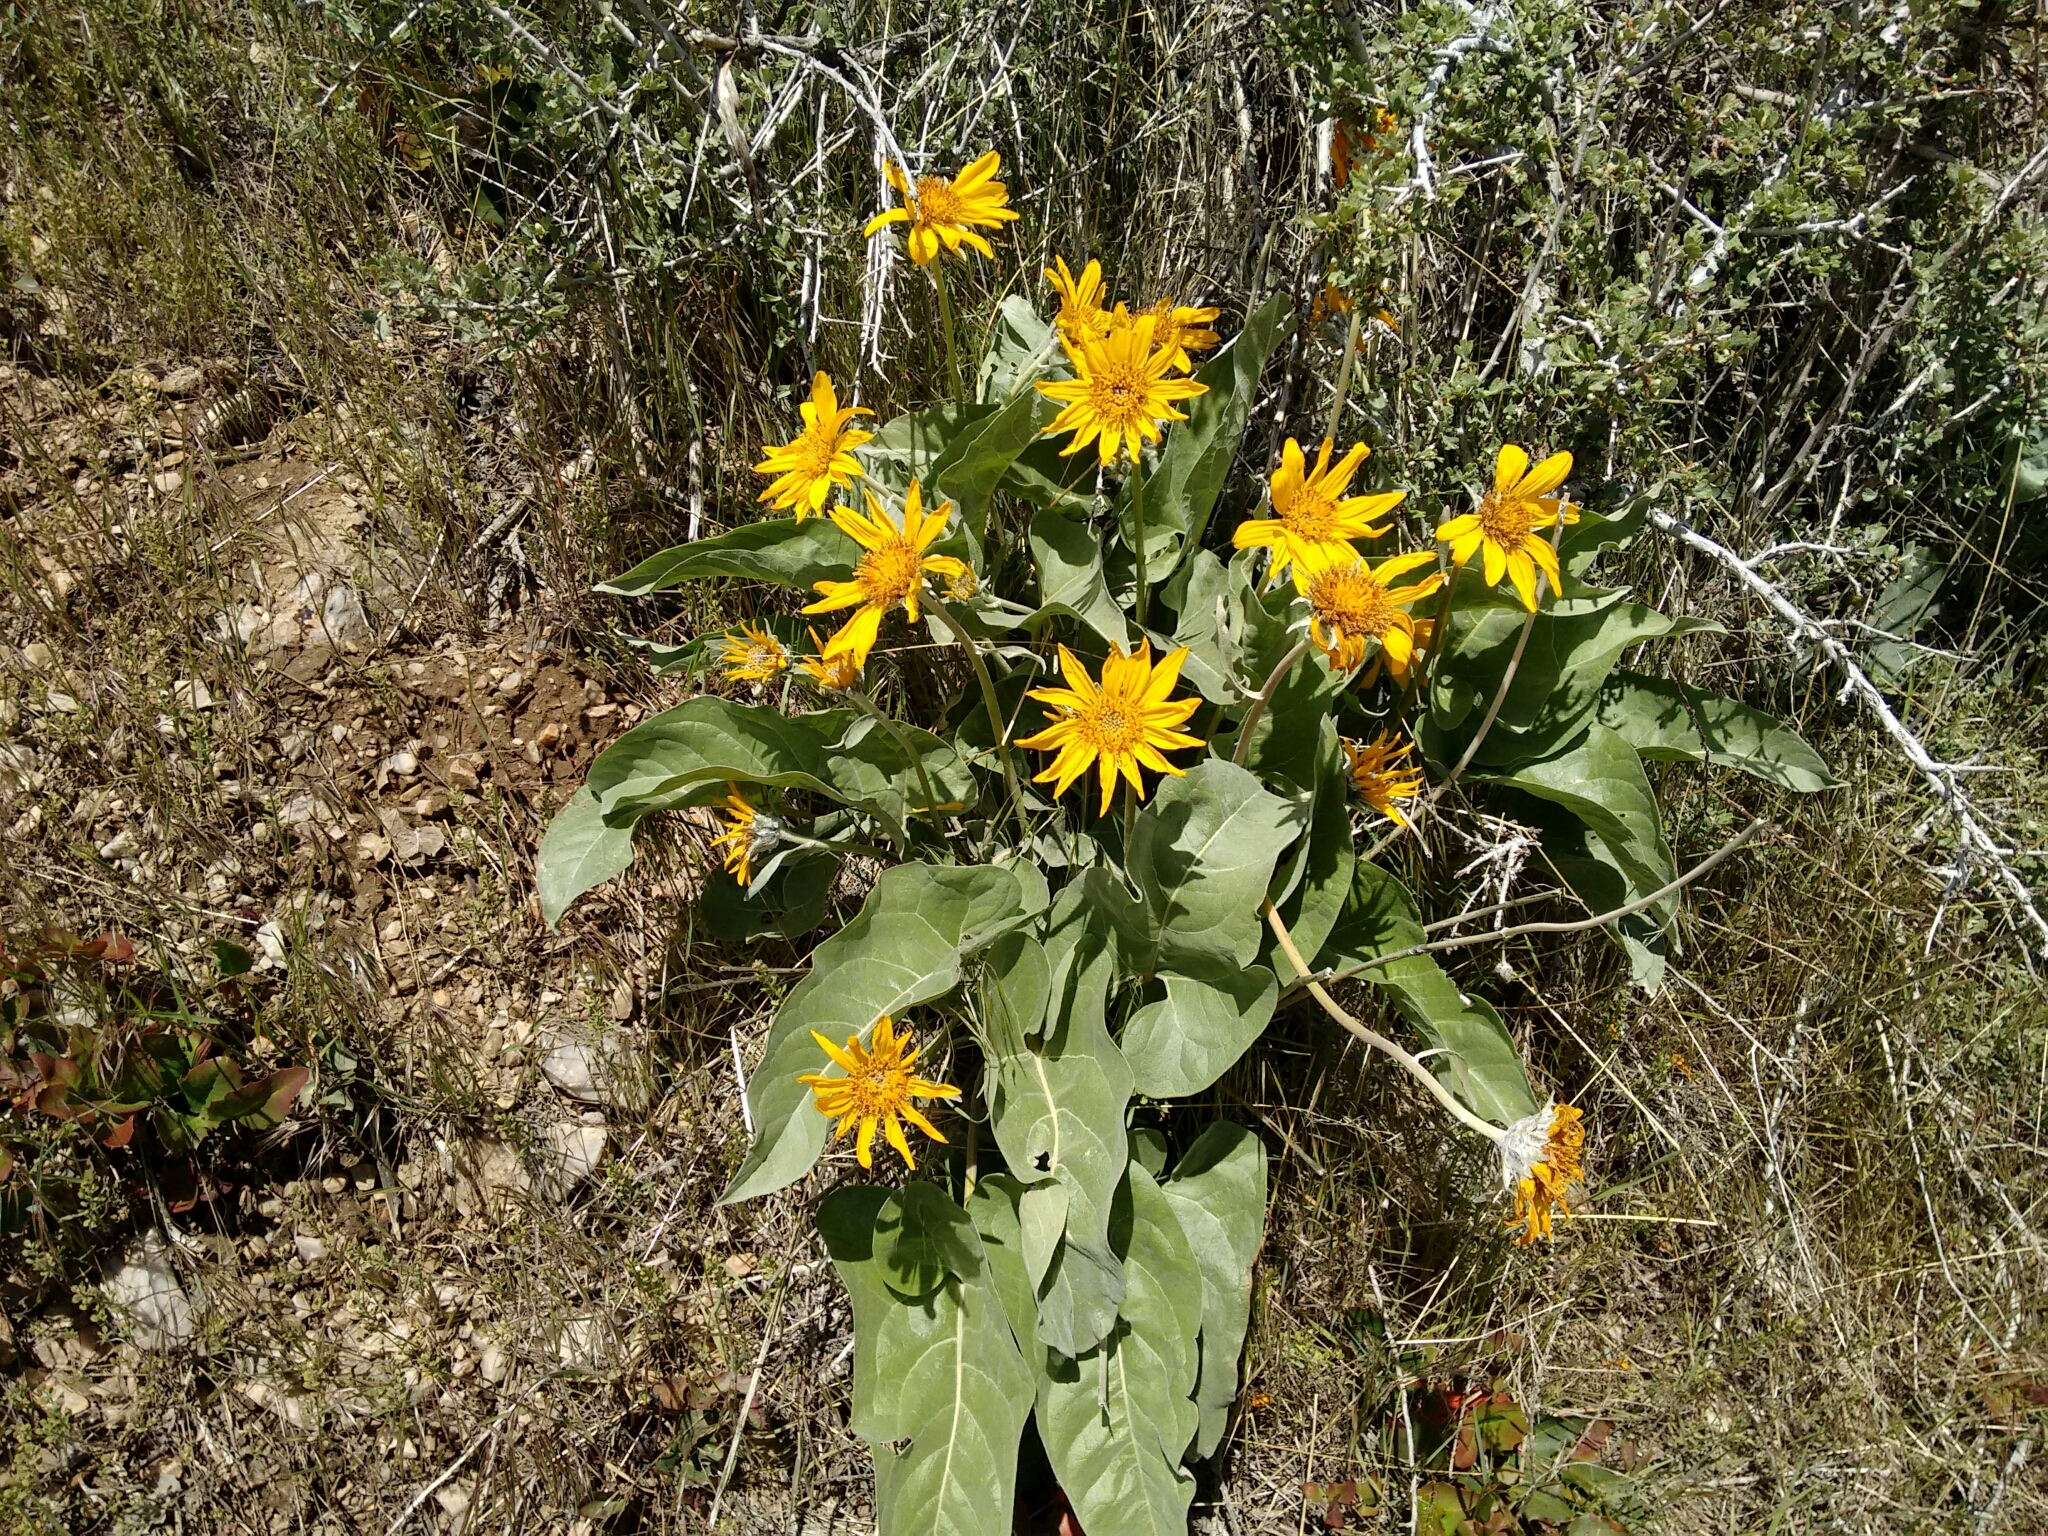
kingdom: Plantae
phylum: Tracheophyta
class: Magnoliopsida
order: Asterales
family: Asteraceae
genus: Wyethia
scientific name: Wyethia sagittata
